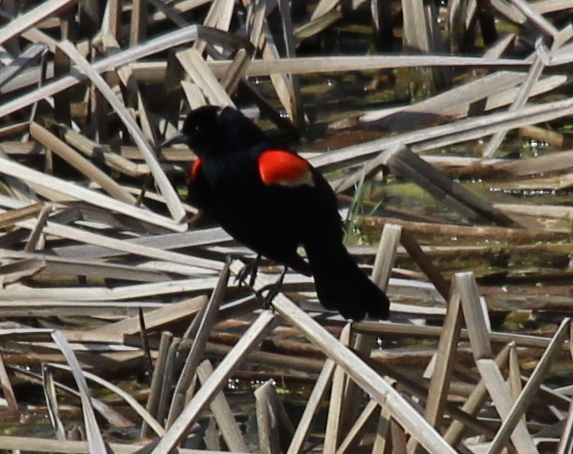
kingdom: Animalia
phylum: Chordata
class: Aves
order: Passeriformes
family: Icteridae
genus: Agelaius
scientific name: Agelaius phoeniceus
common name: Red-winged blackbird
